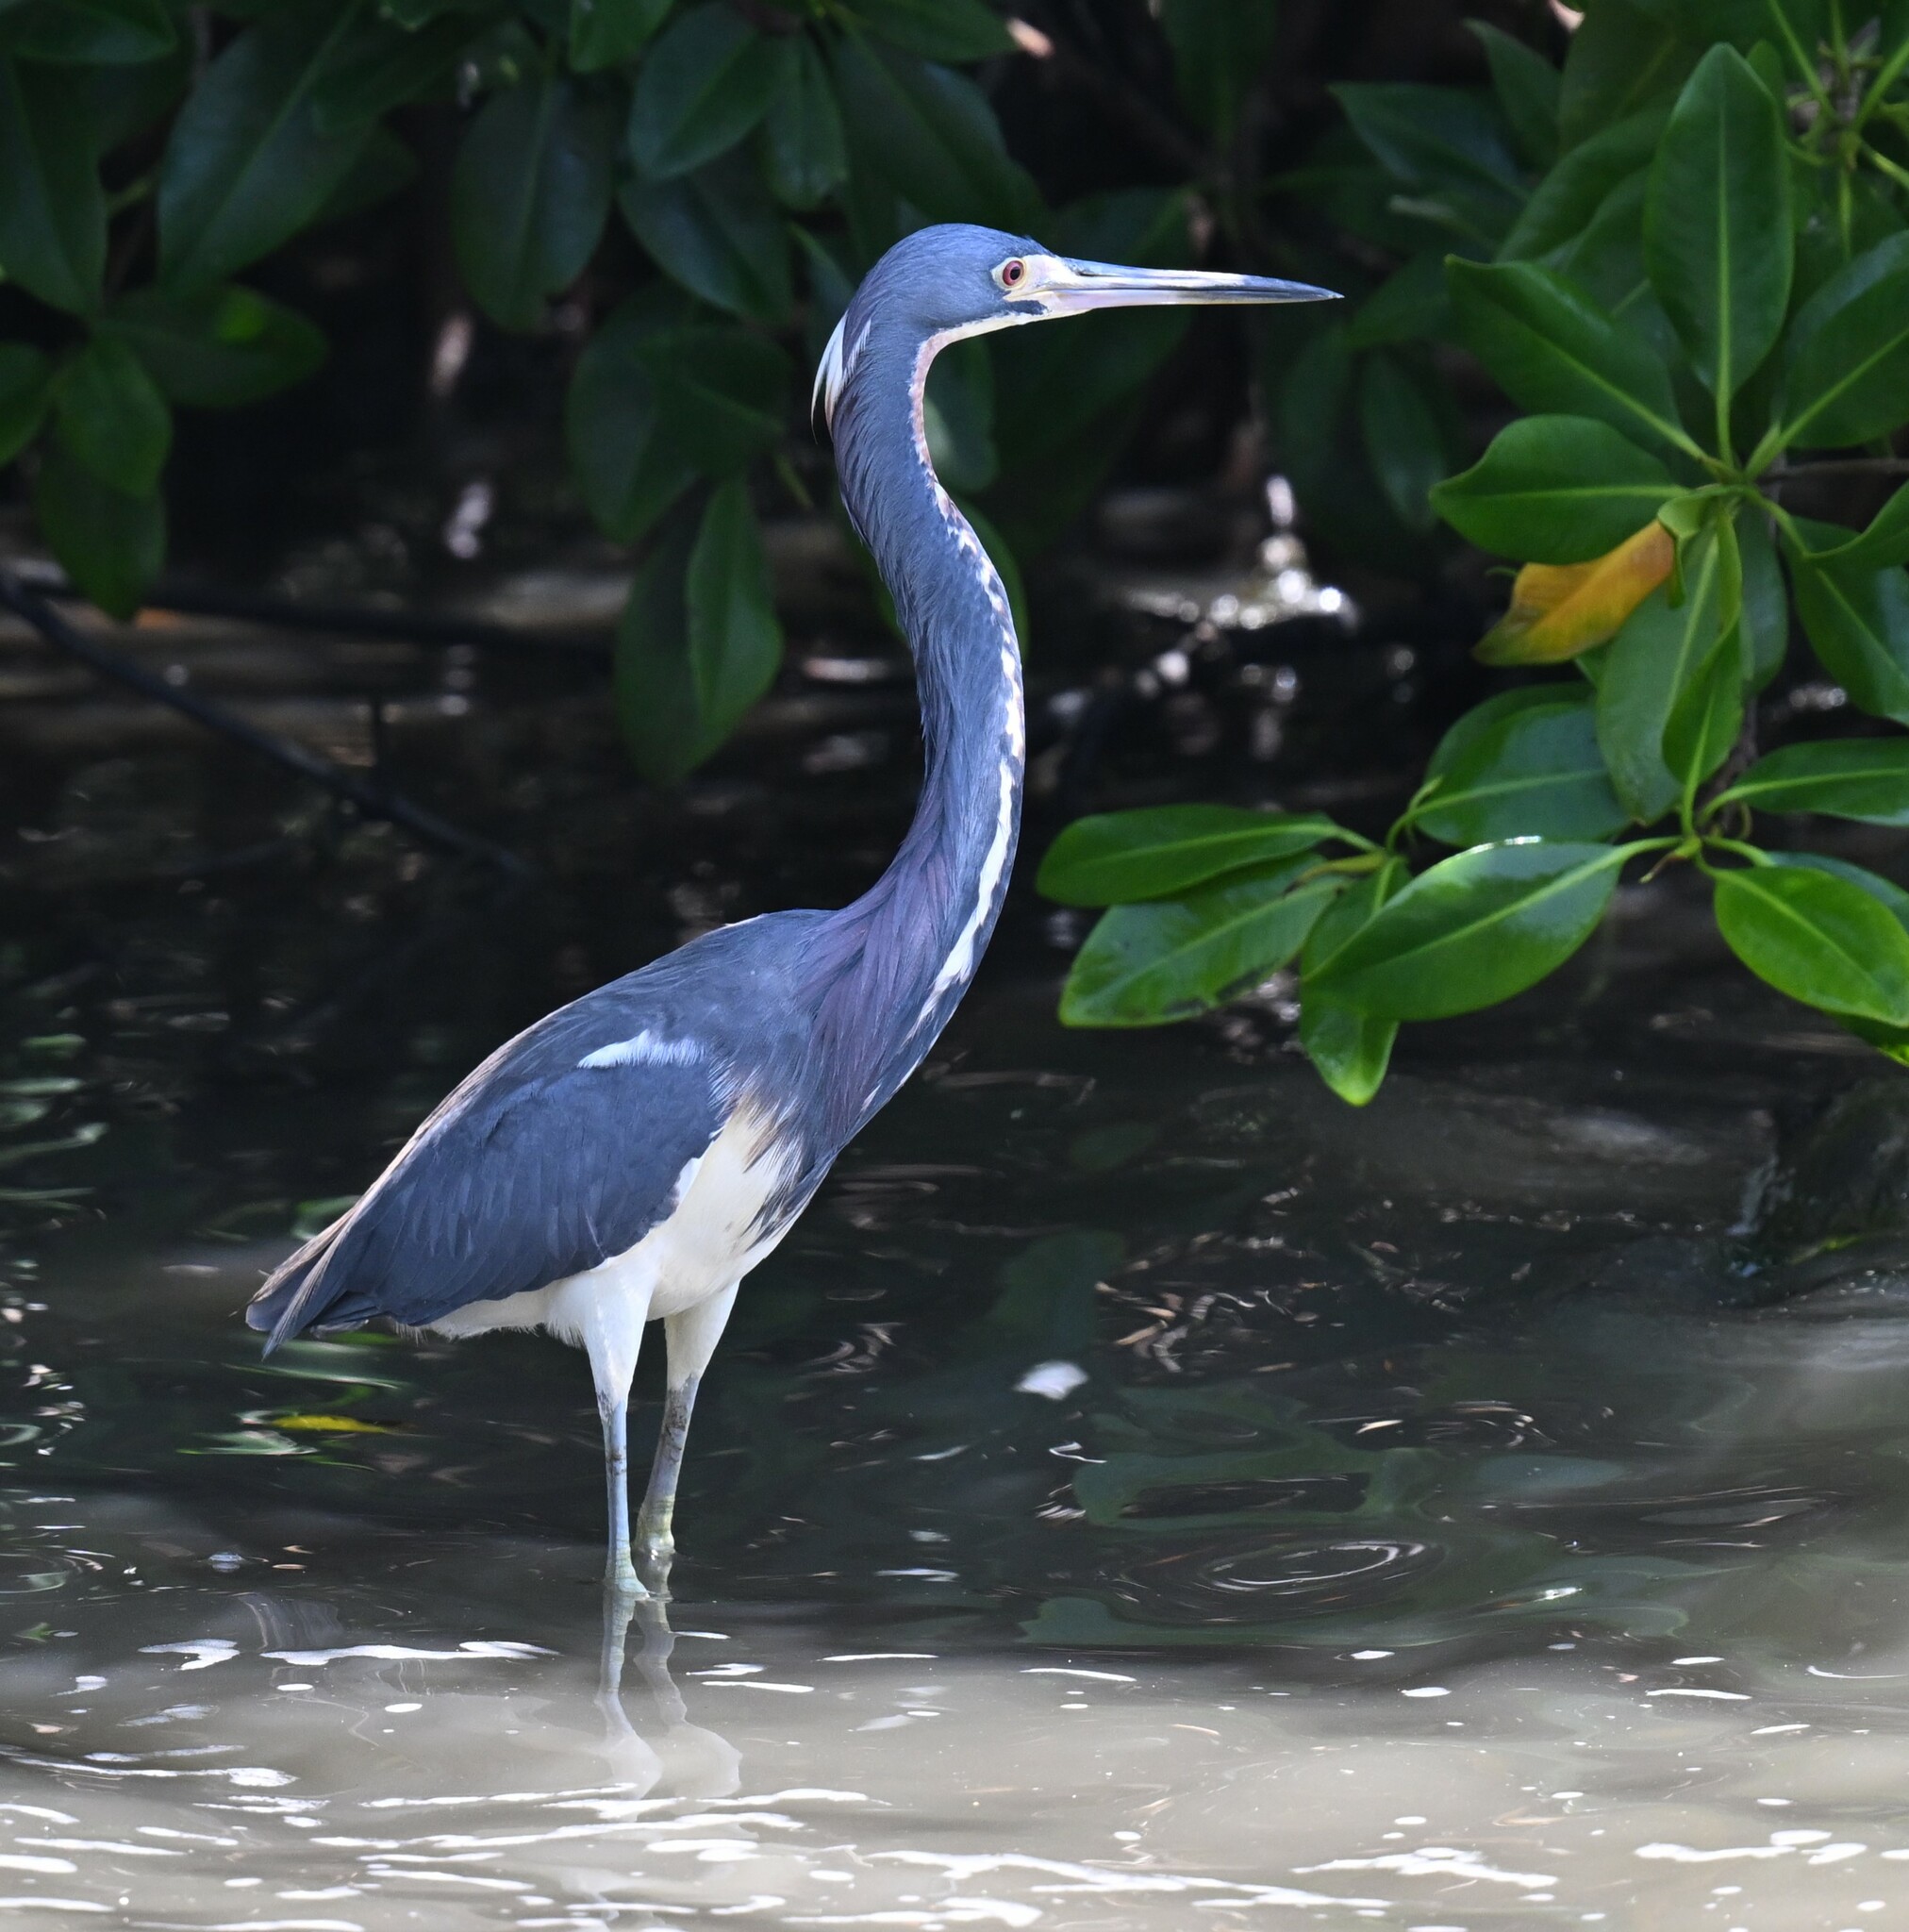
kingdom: Animalia
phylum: Chordata
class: Aves
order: Pelecaniformes
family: Ardeidae
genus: Egretta
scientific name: Egretta tricolor
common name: Tricolored heron
